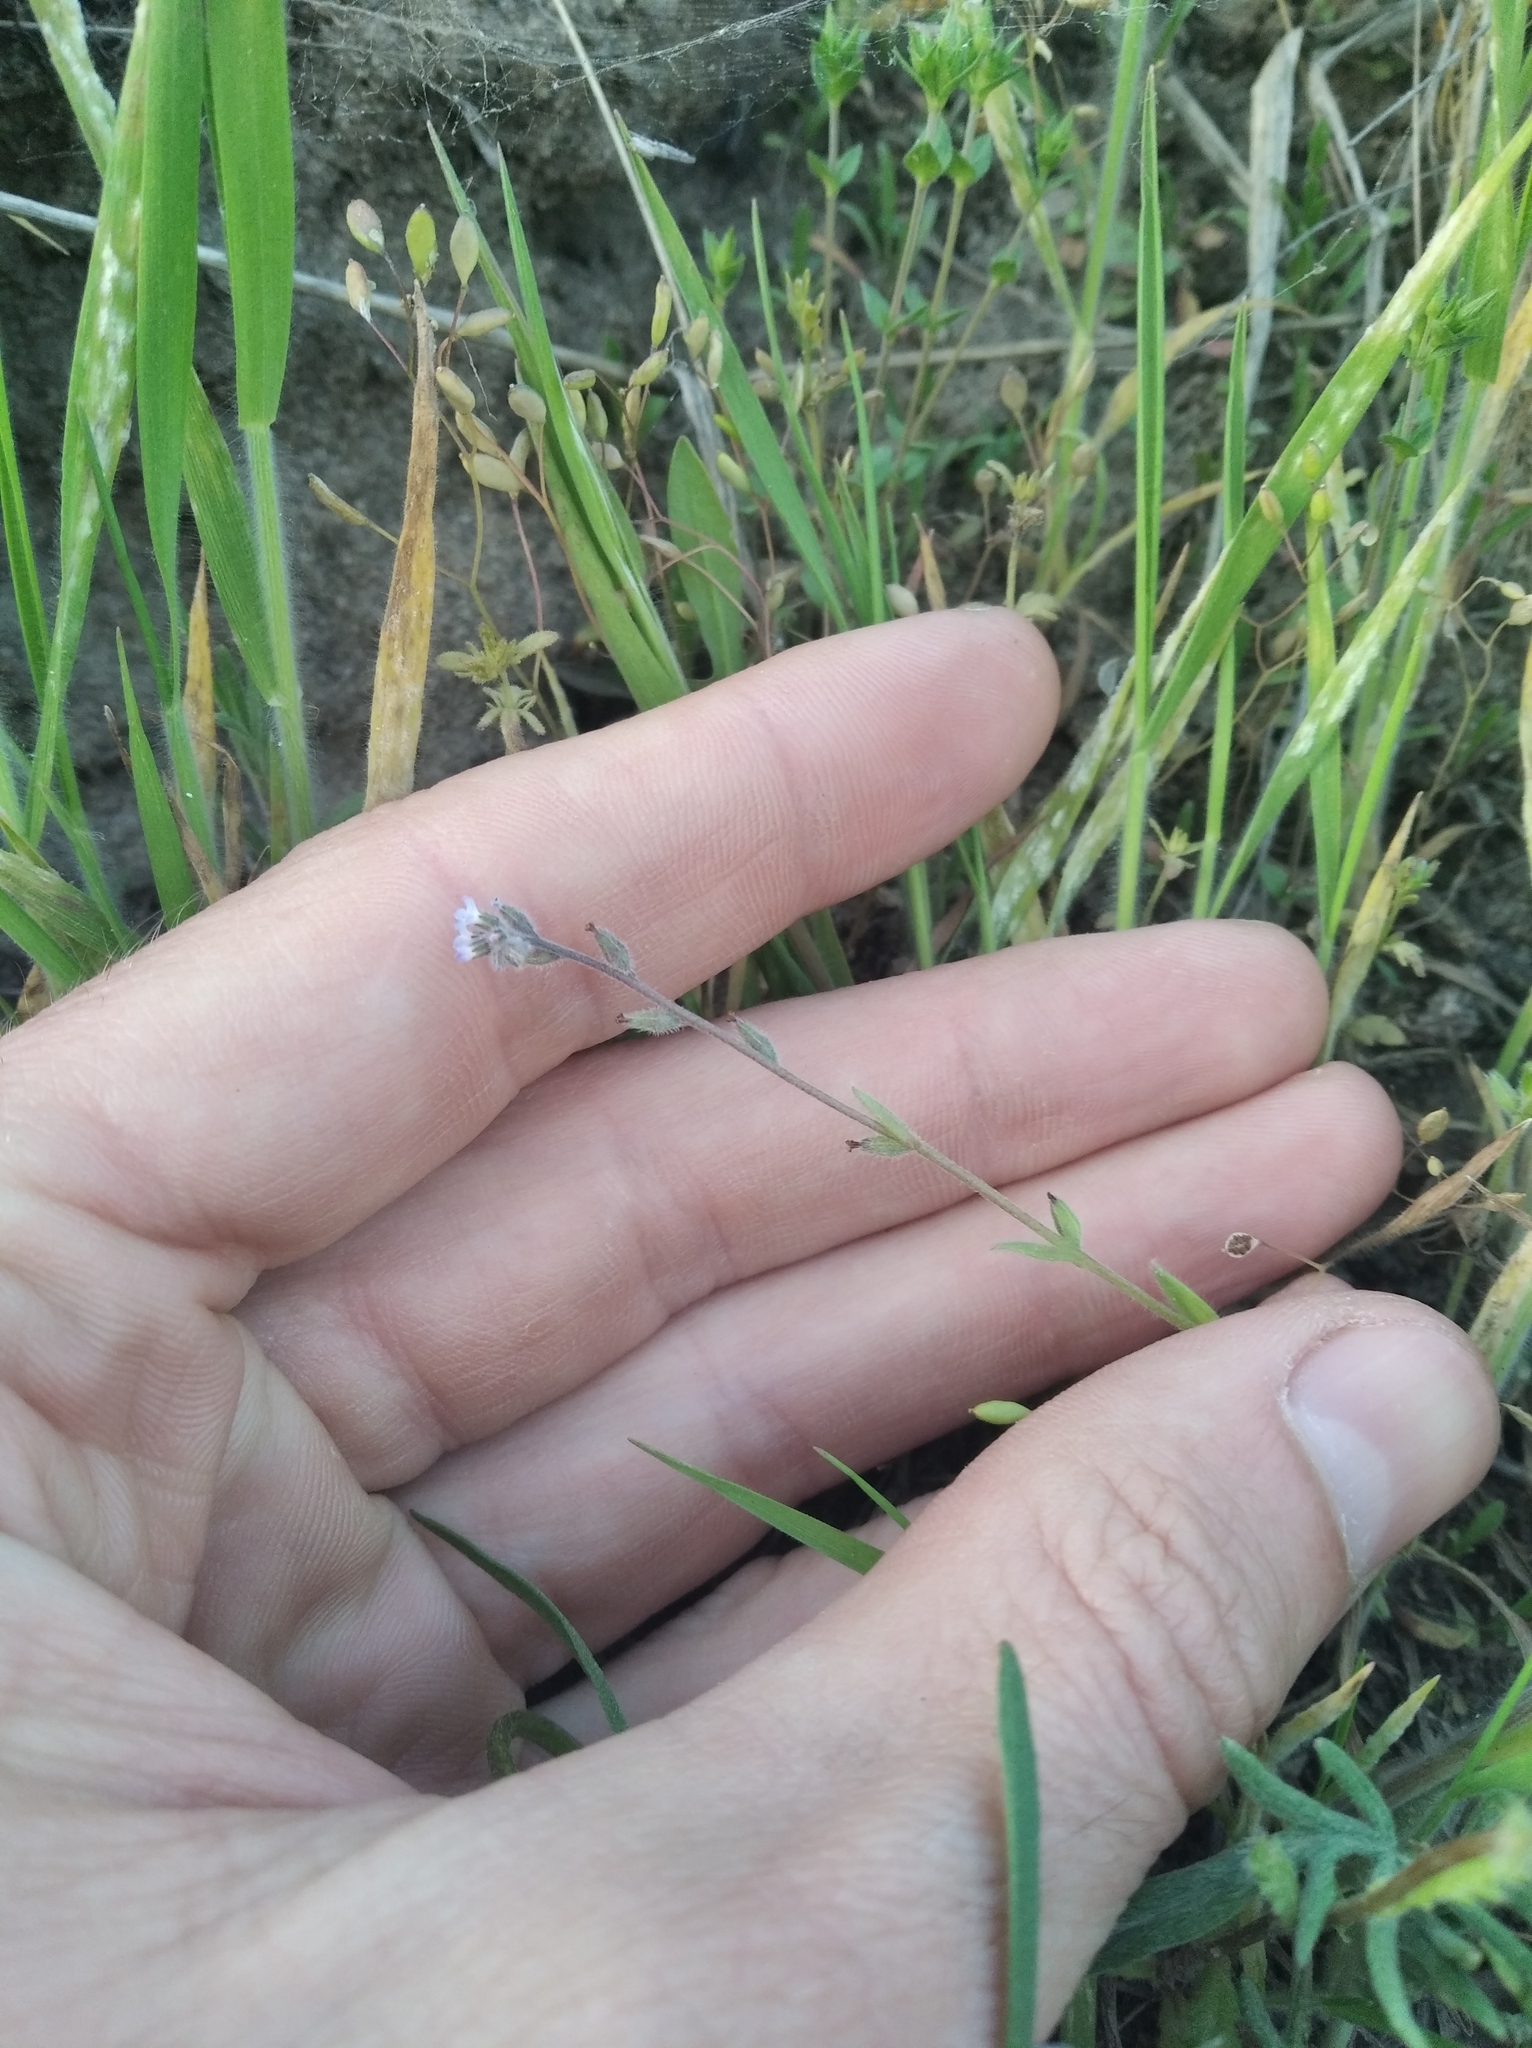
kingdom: Plantae
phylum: Tracheophyta
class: Magnoliopsida
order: Boraginales
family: Boraginaceae
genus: Myosotis
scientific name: Myosotis stricta
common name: Strict forget-me-not
